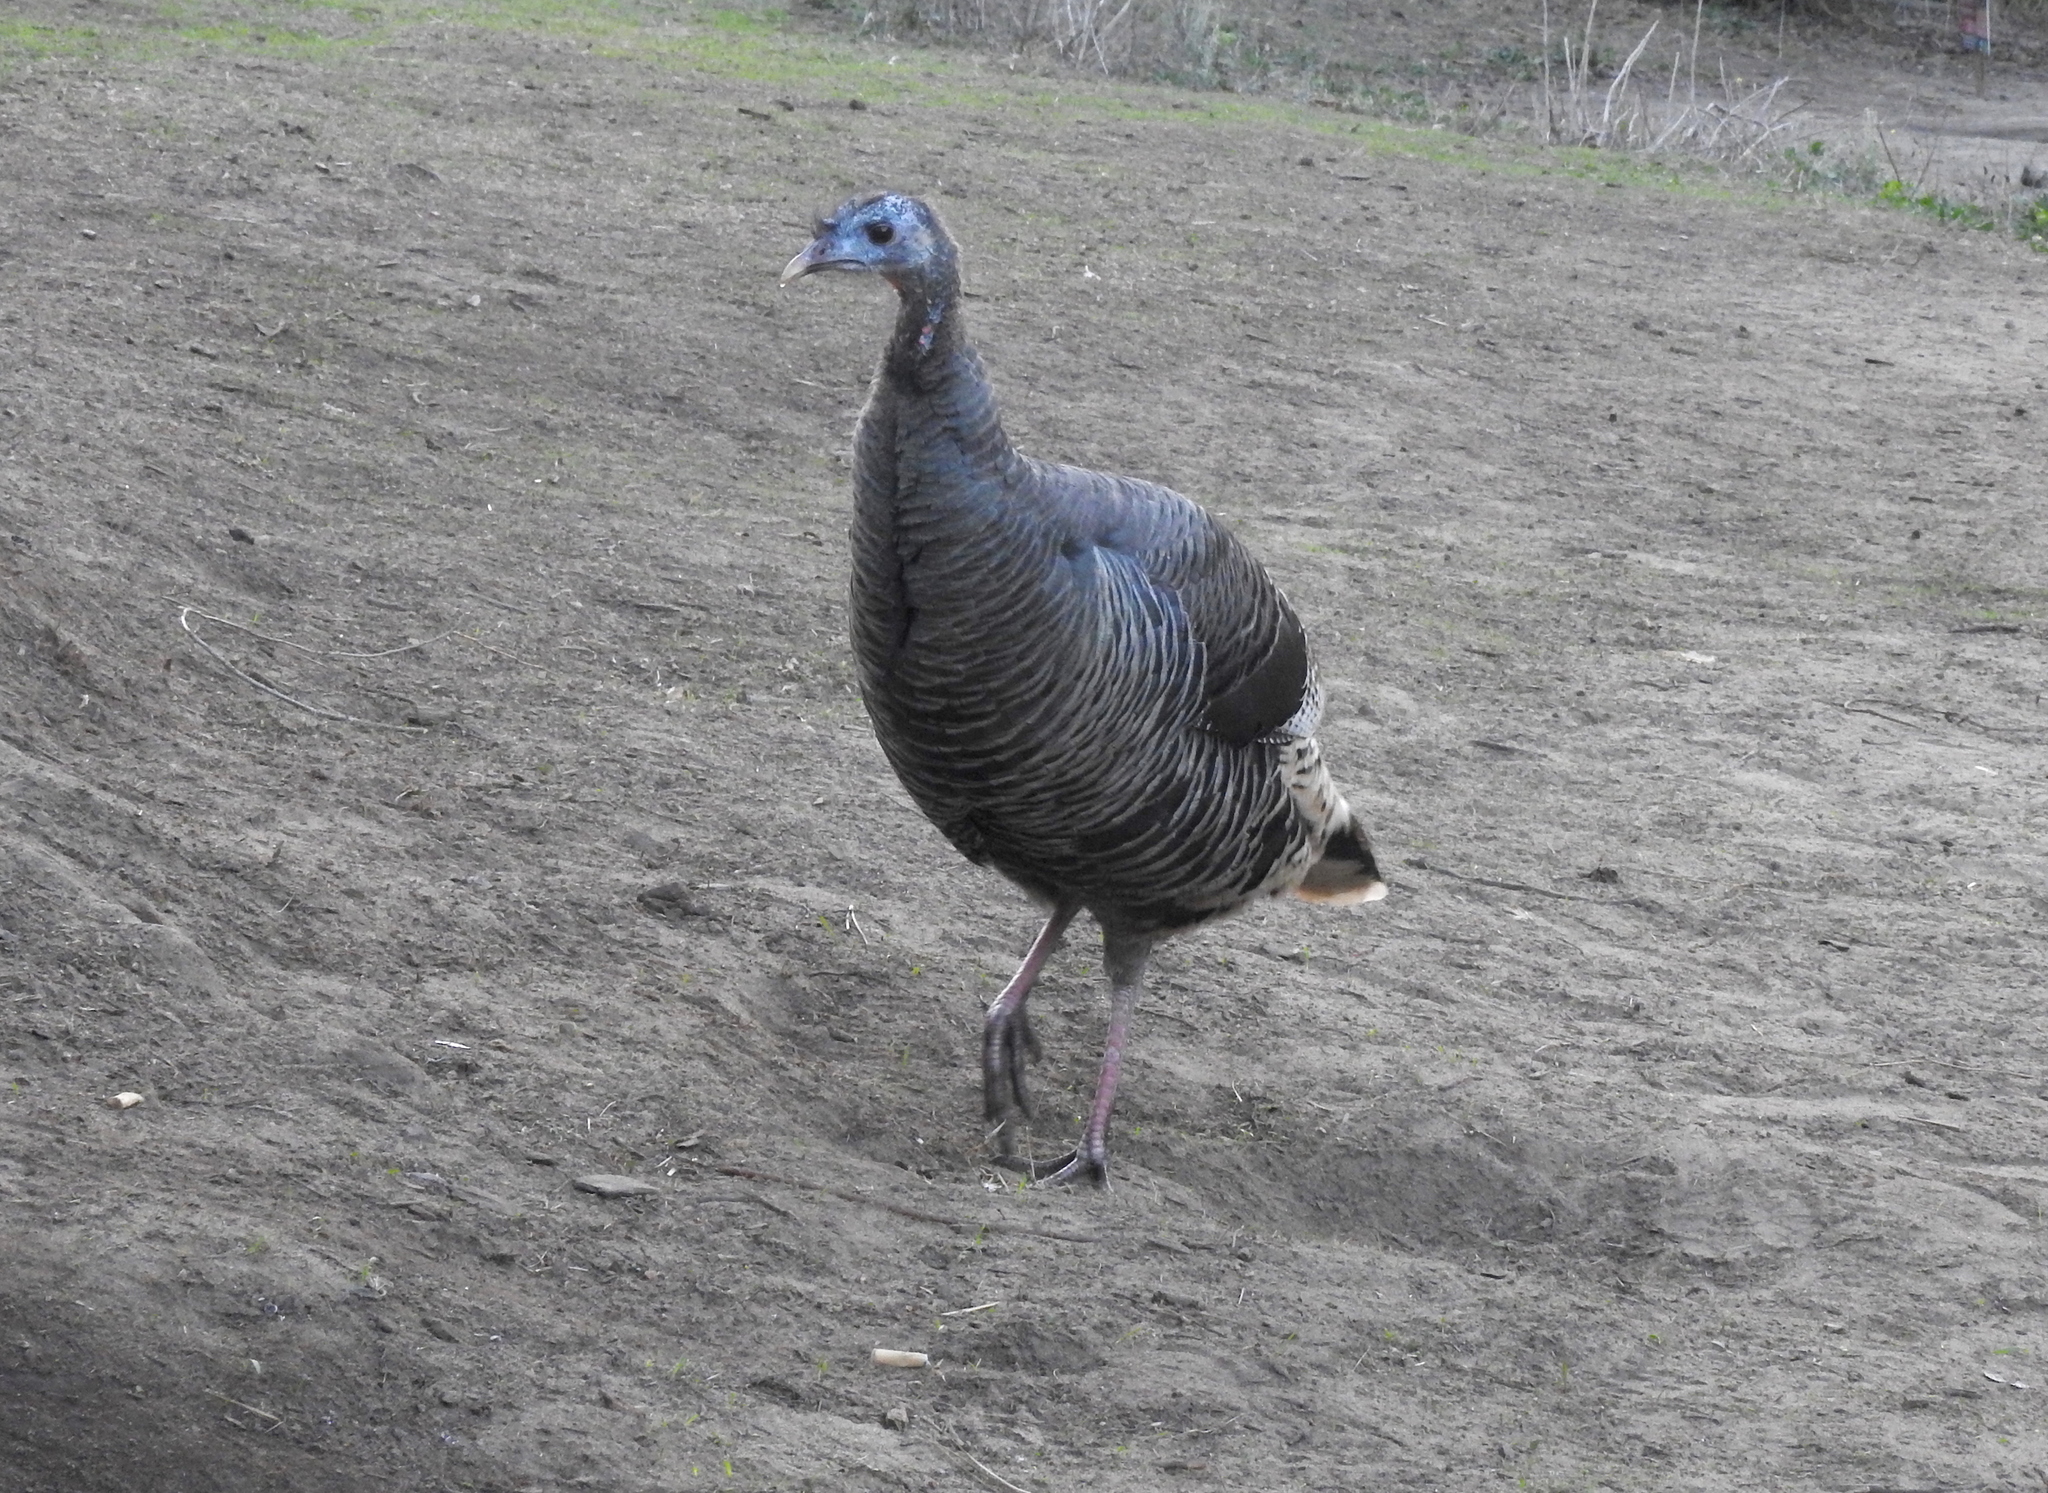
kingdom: Animalia
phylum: Chordata
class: Aves
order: Galliformes
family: Phasianidae
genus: Meleagris
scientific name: Meleagris gallopavo
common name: Wild turkey
